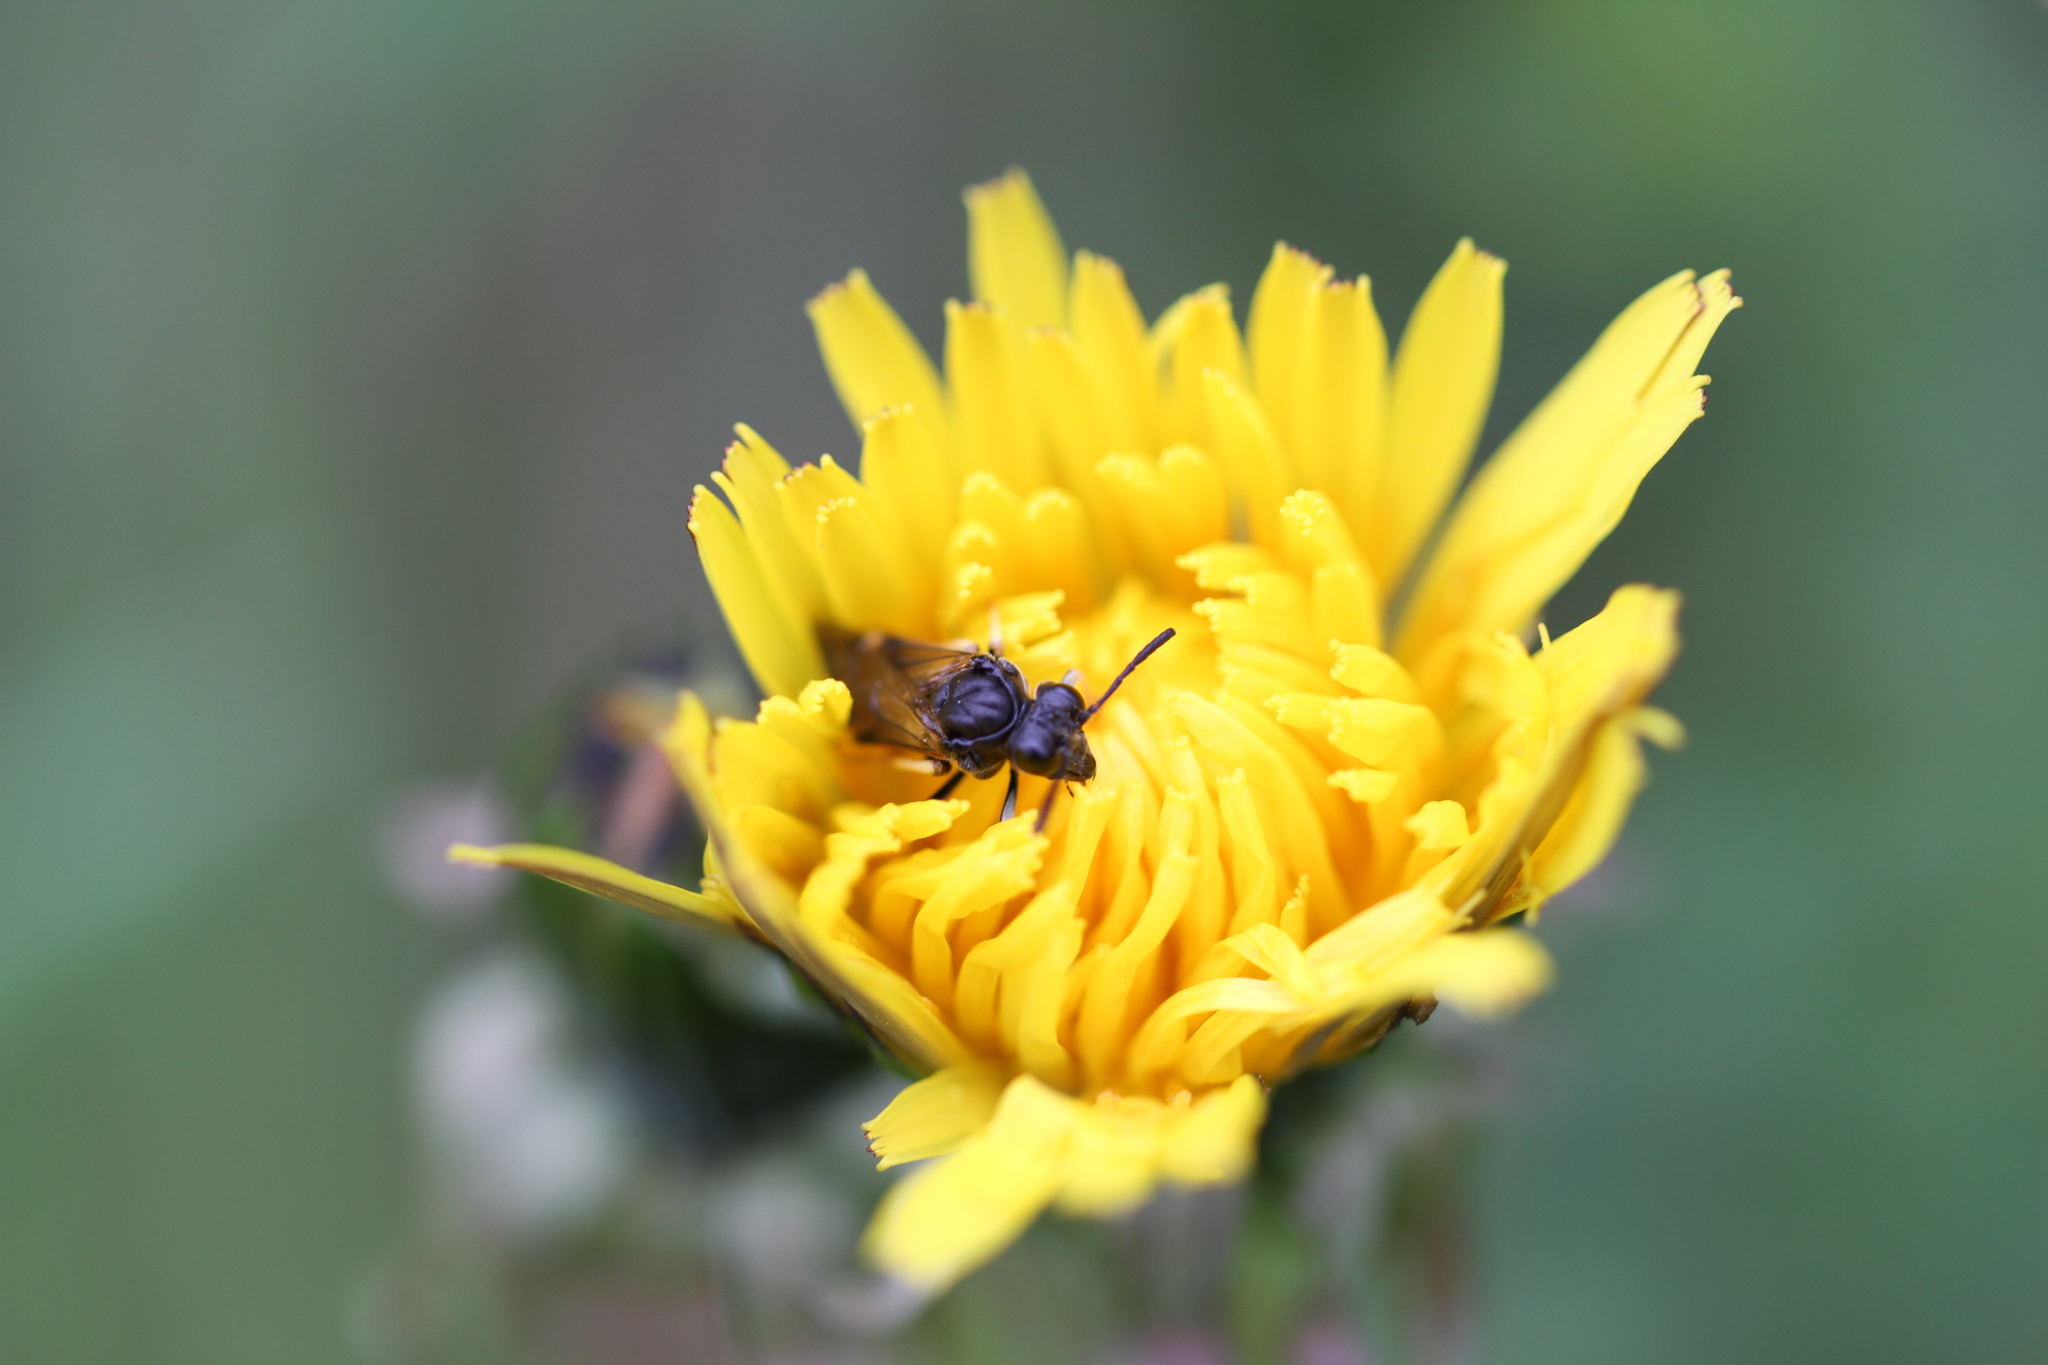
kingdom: Animalia
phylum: Arthropoda
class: Insecta
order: Hymenoptera
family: Tenthredinidae
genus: Tenthredo
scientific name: Tenthredo koehleri
